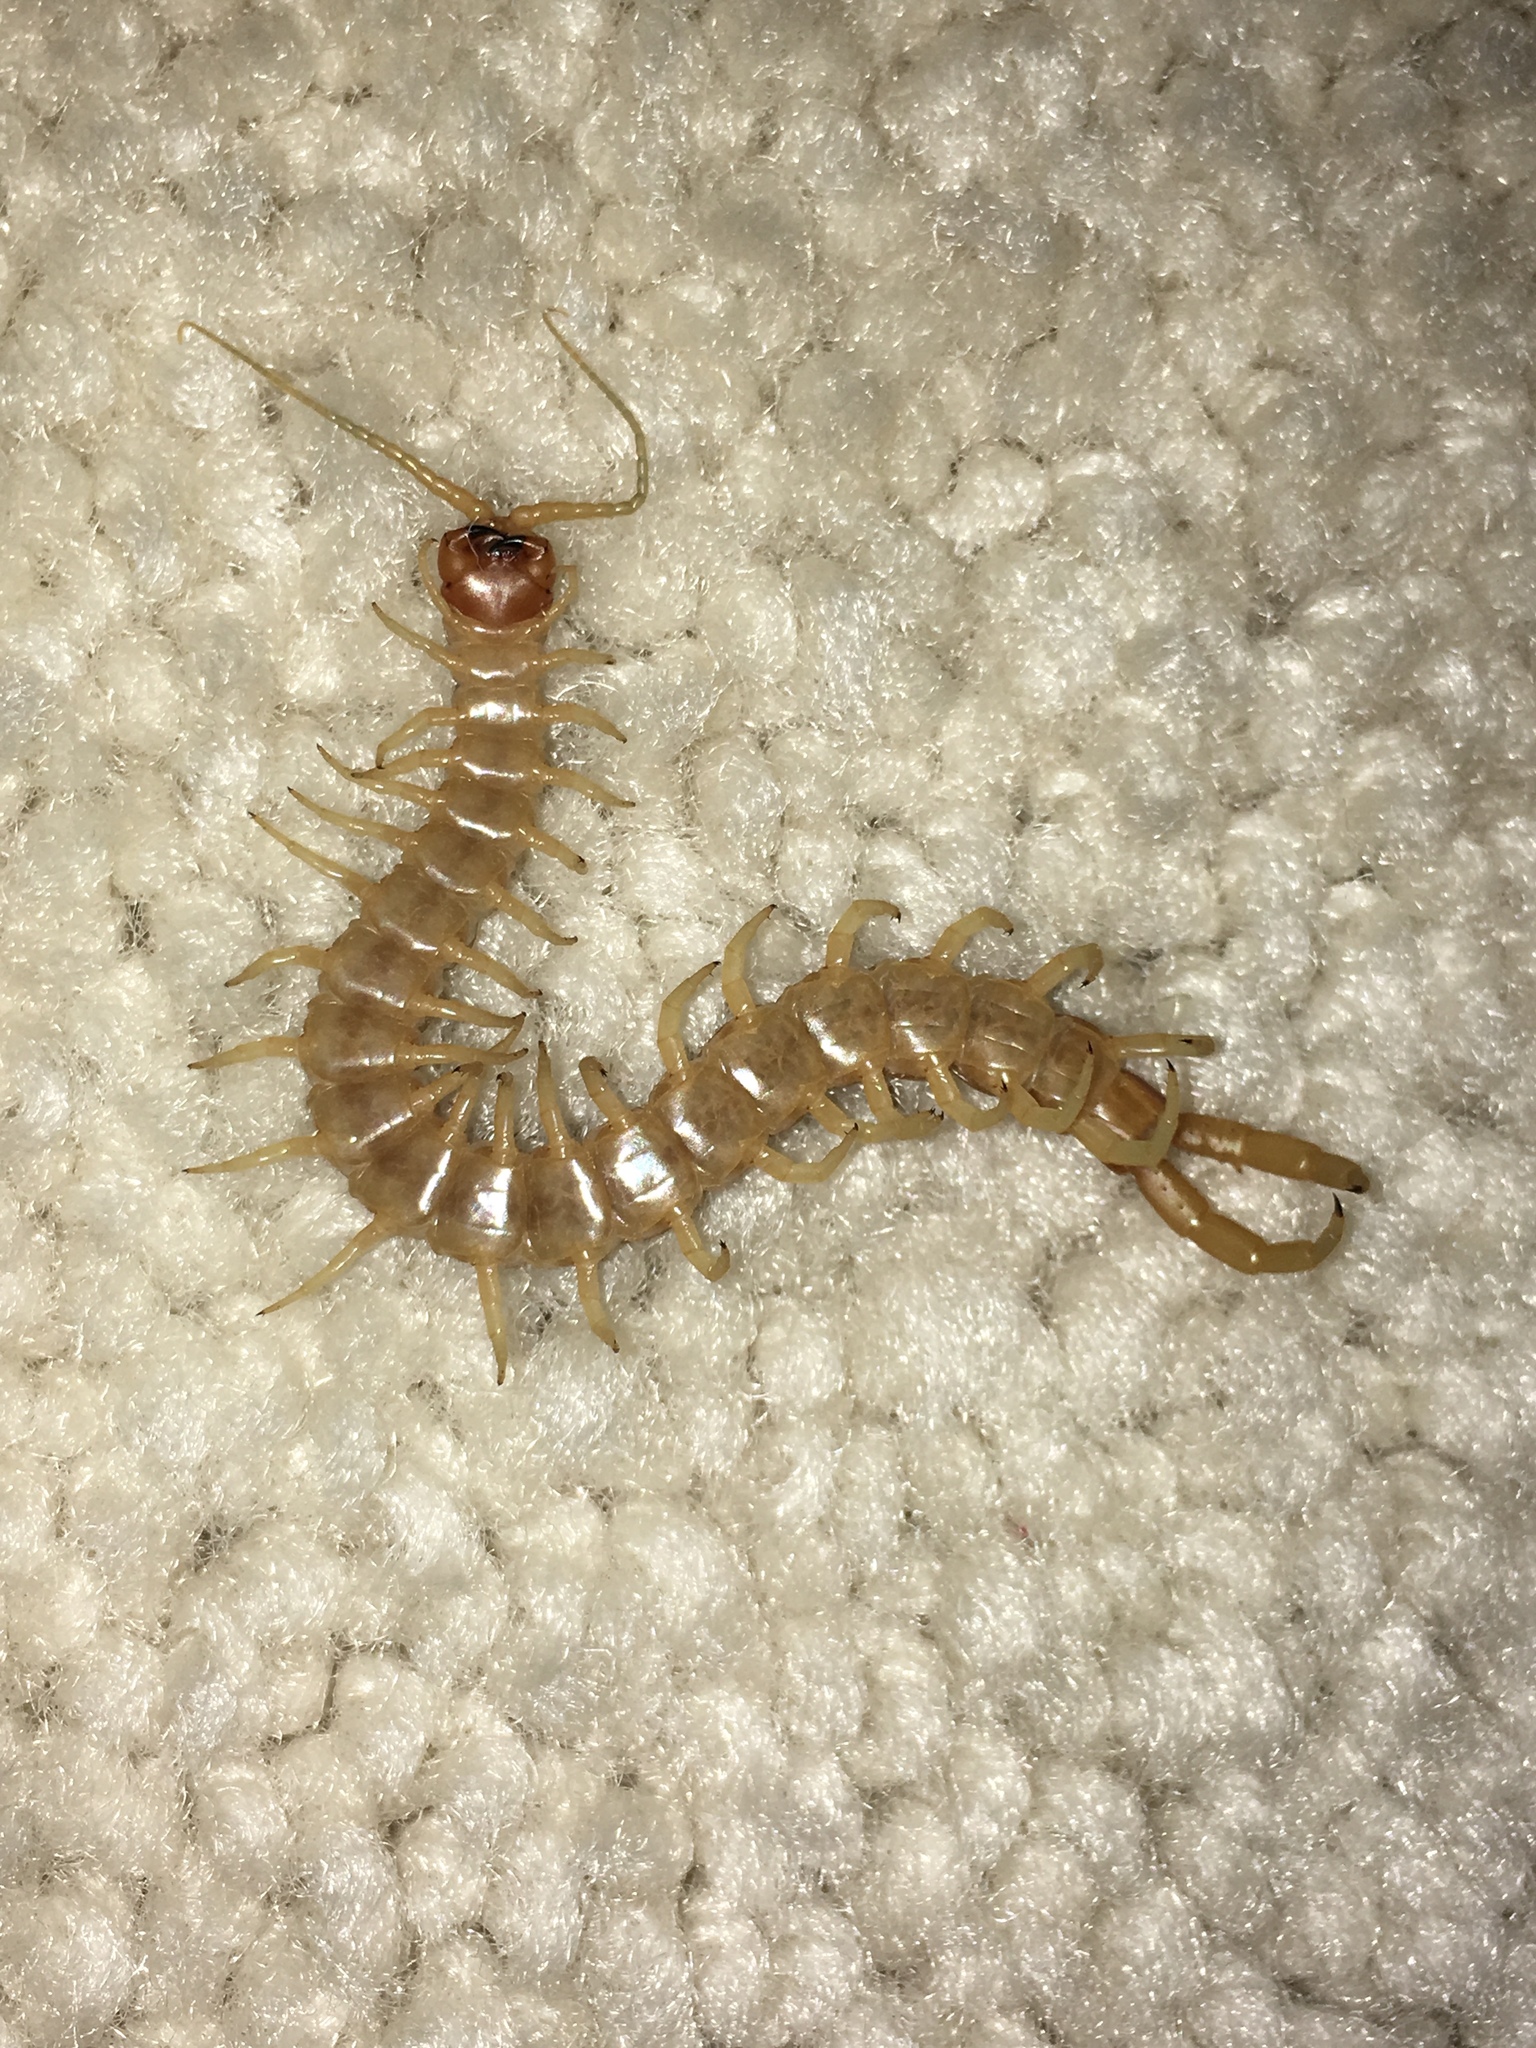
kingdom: Animalia
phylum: Arthropoda
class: Chilopoda
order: Scolopendromorpha
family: Scolopendridae
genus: Scolopendra
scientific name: Scolopendra polymorpha
